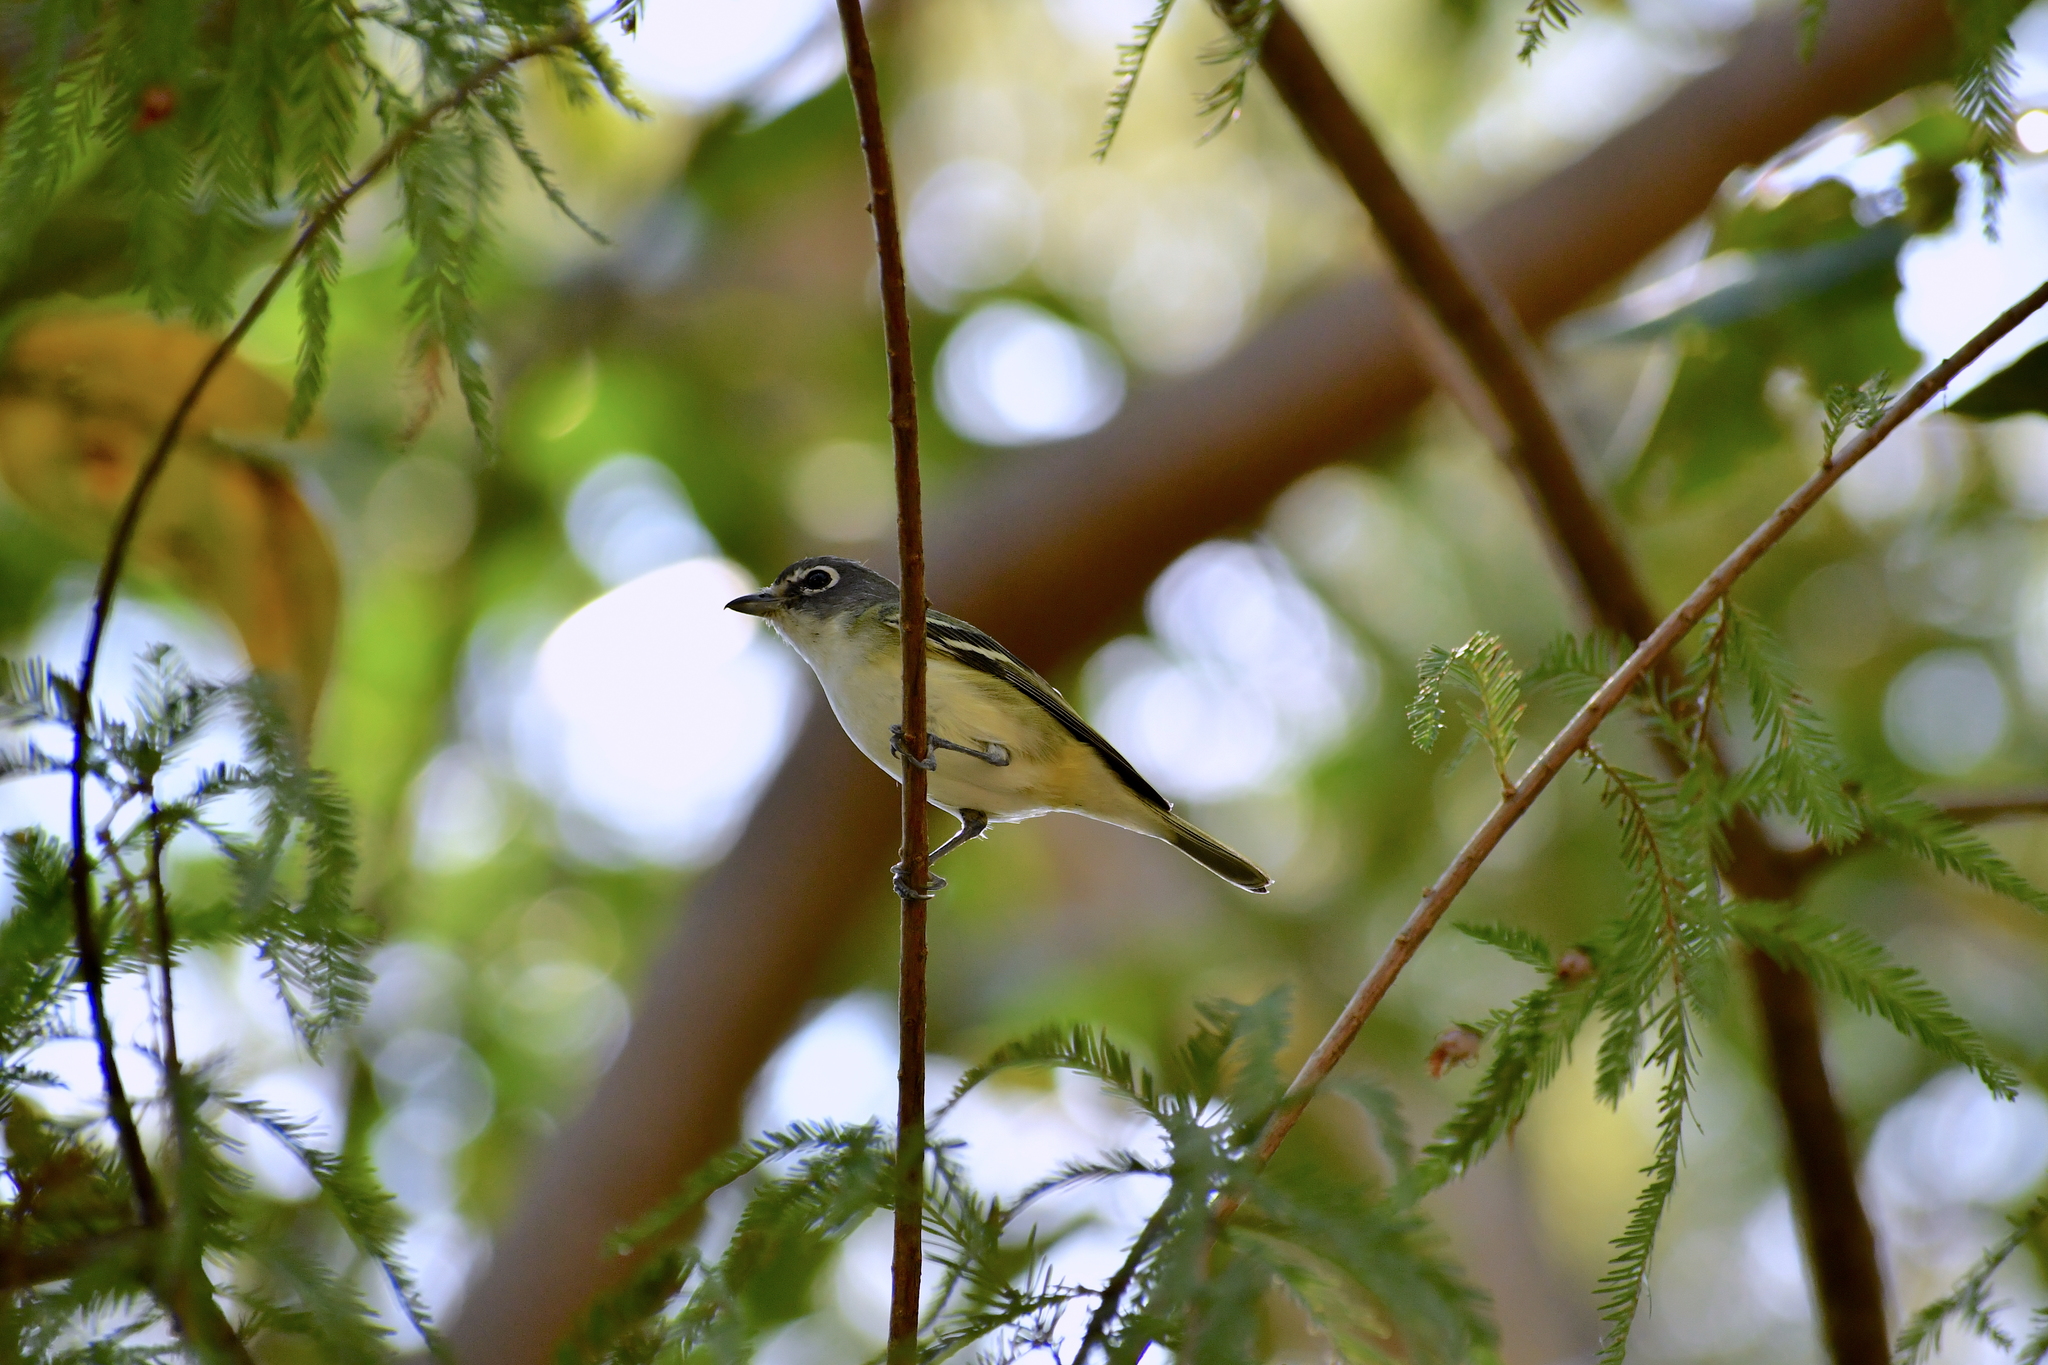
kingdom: Animalia
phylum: Chordata
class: Aves
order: Passeriformes
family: Vireonidae
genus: Vireo
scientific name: Vireo solitarius
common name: Blue-headed vireo
